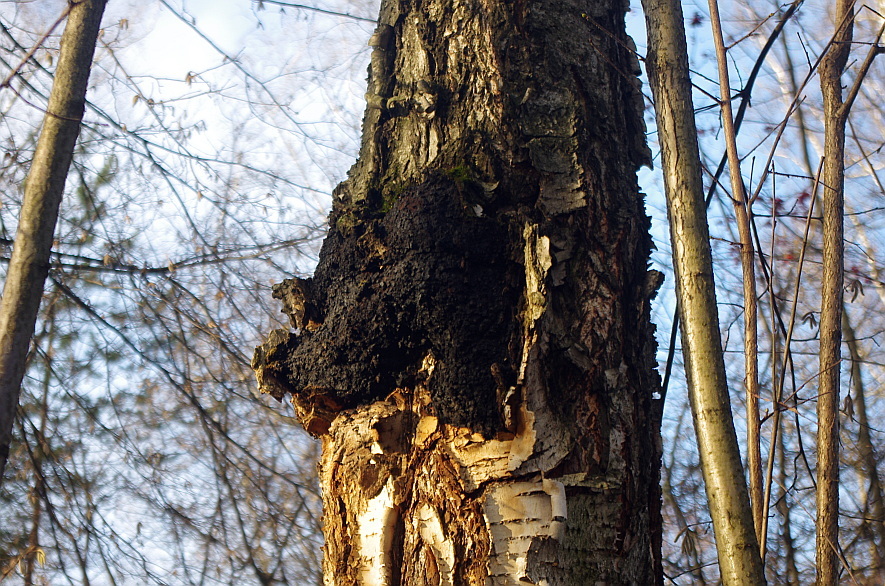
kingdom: Fungi
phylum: Basidiomycota
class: Agaricomycetes
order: Hymenochaetales
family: Hymenochaetaceae
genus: Inonotus
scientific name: Inonotus obliquus
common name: Chaga
